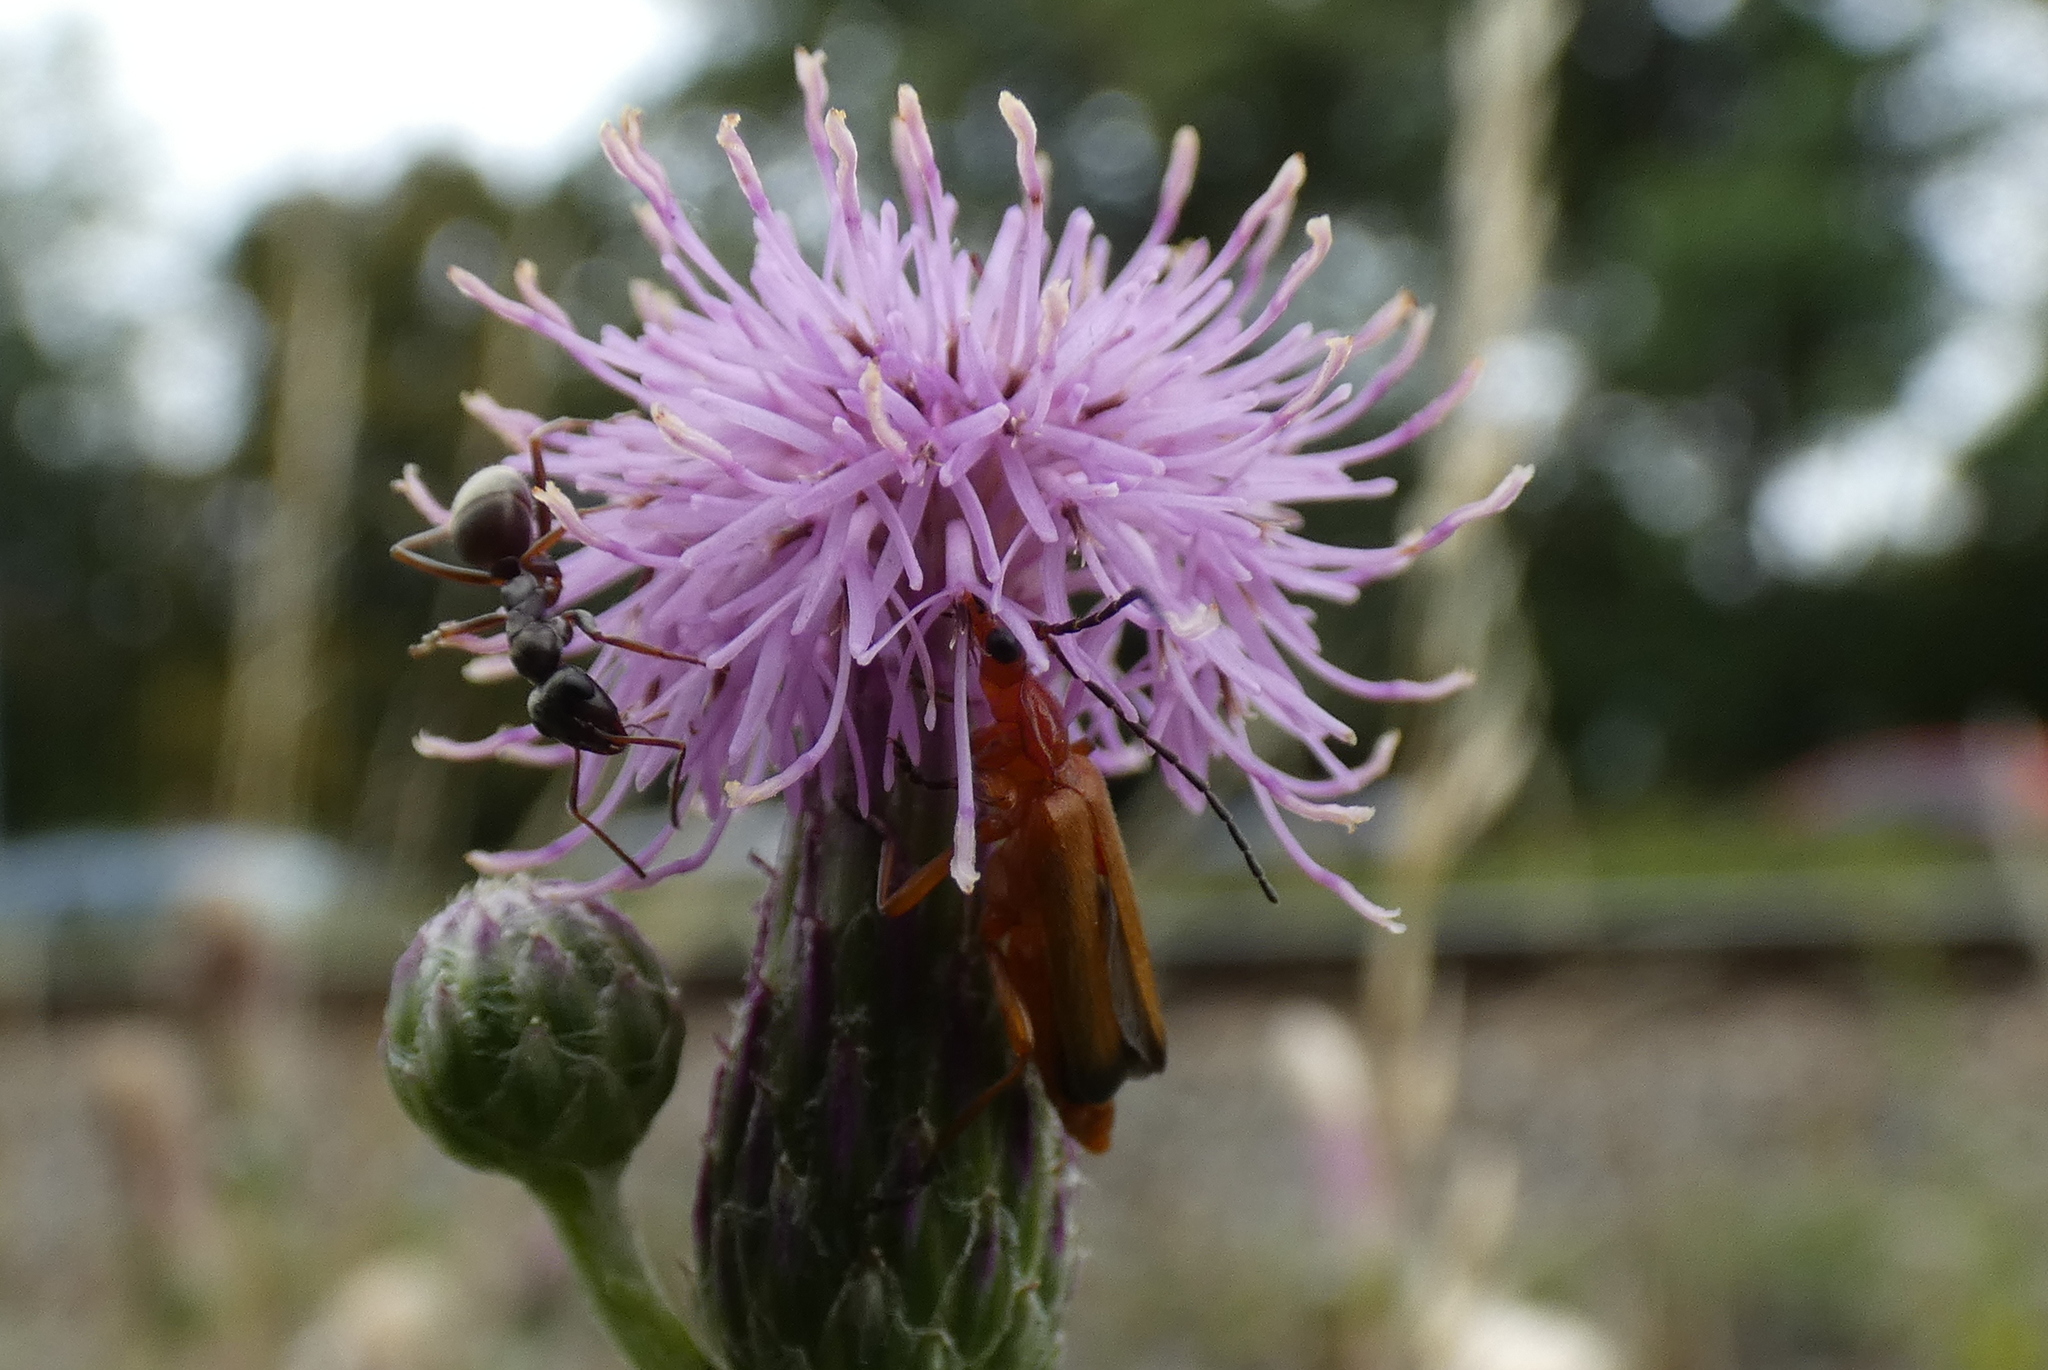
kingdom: Animalia
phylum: Arthropoda
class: Insecta
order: Coleoptera
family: Cantharidae
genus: Rhagonycha
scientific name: Rhagonycha fulva
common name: Common red soldier beetle
